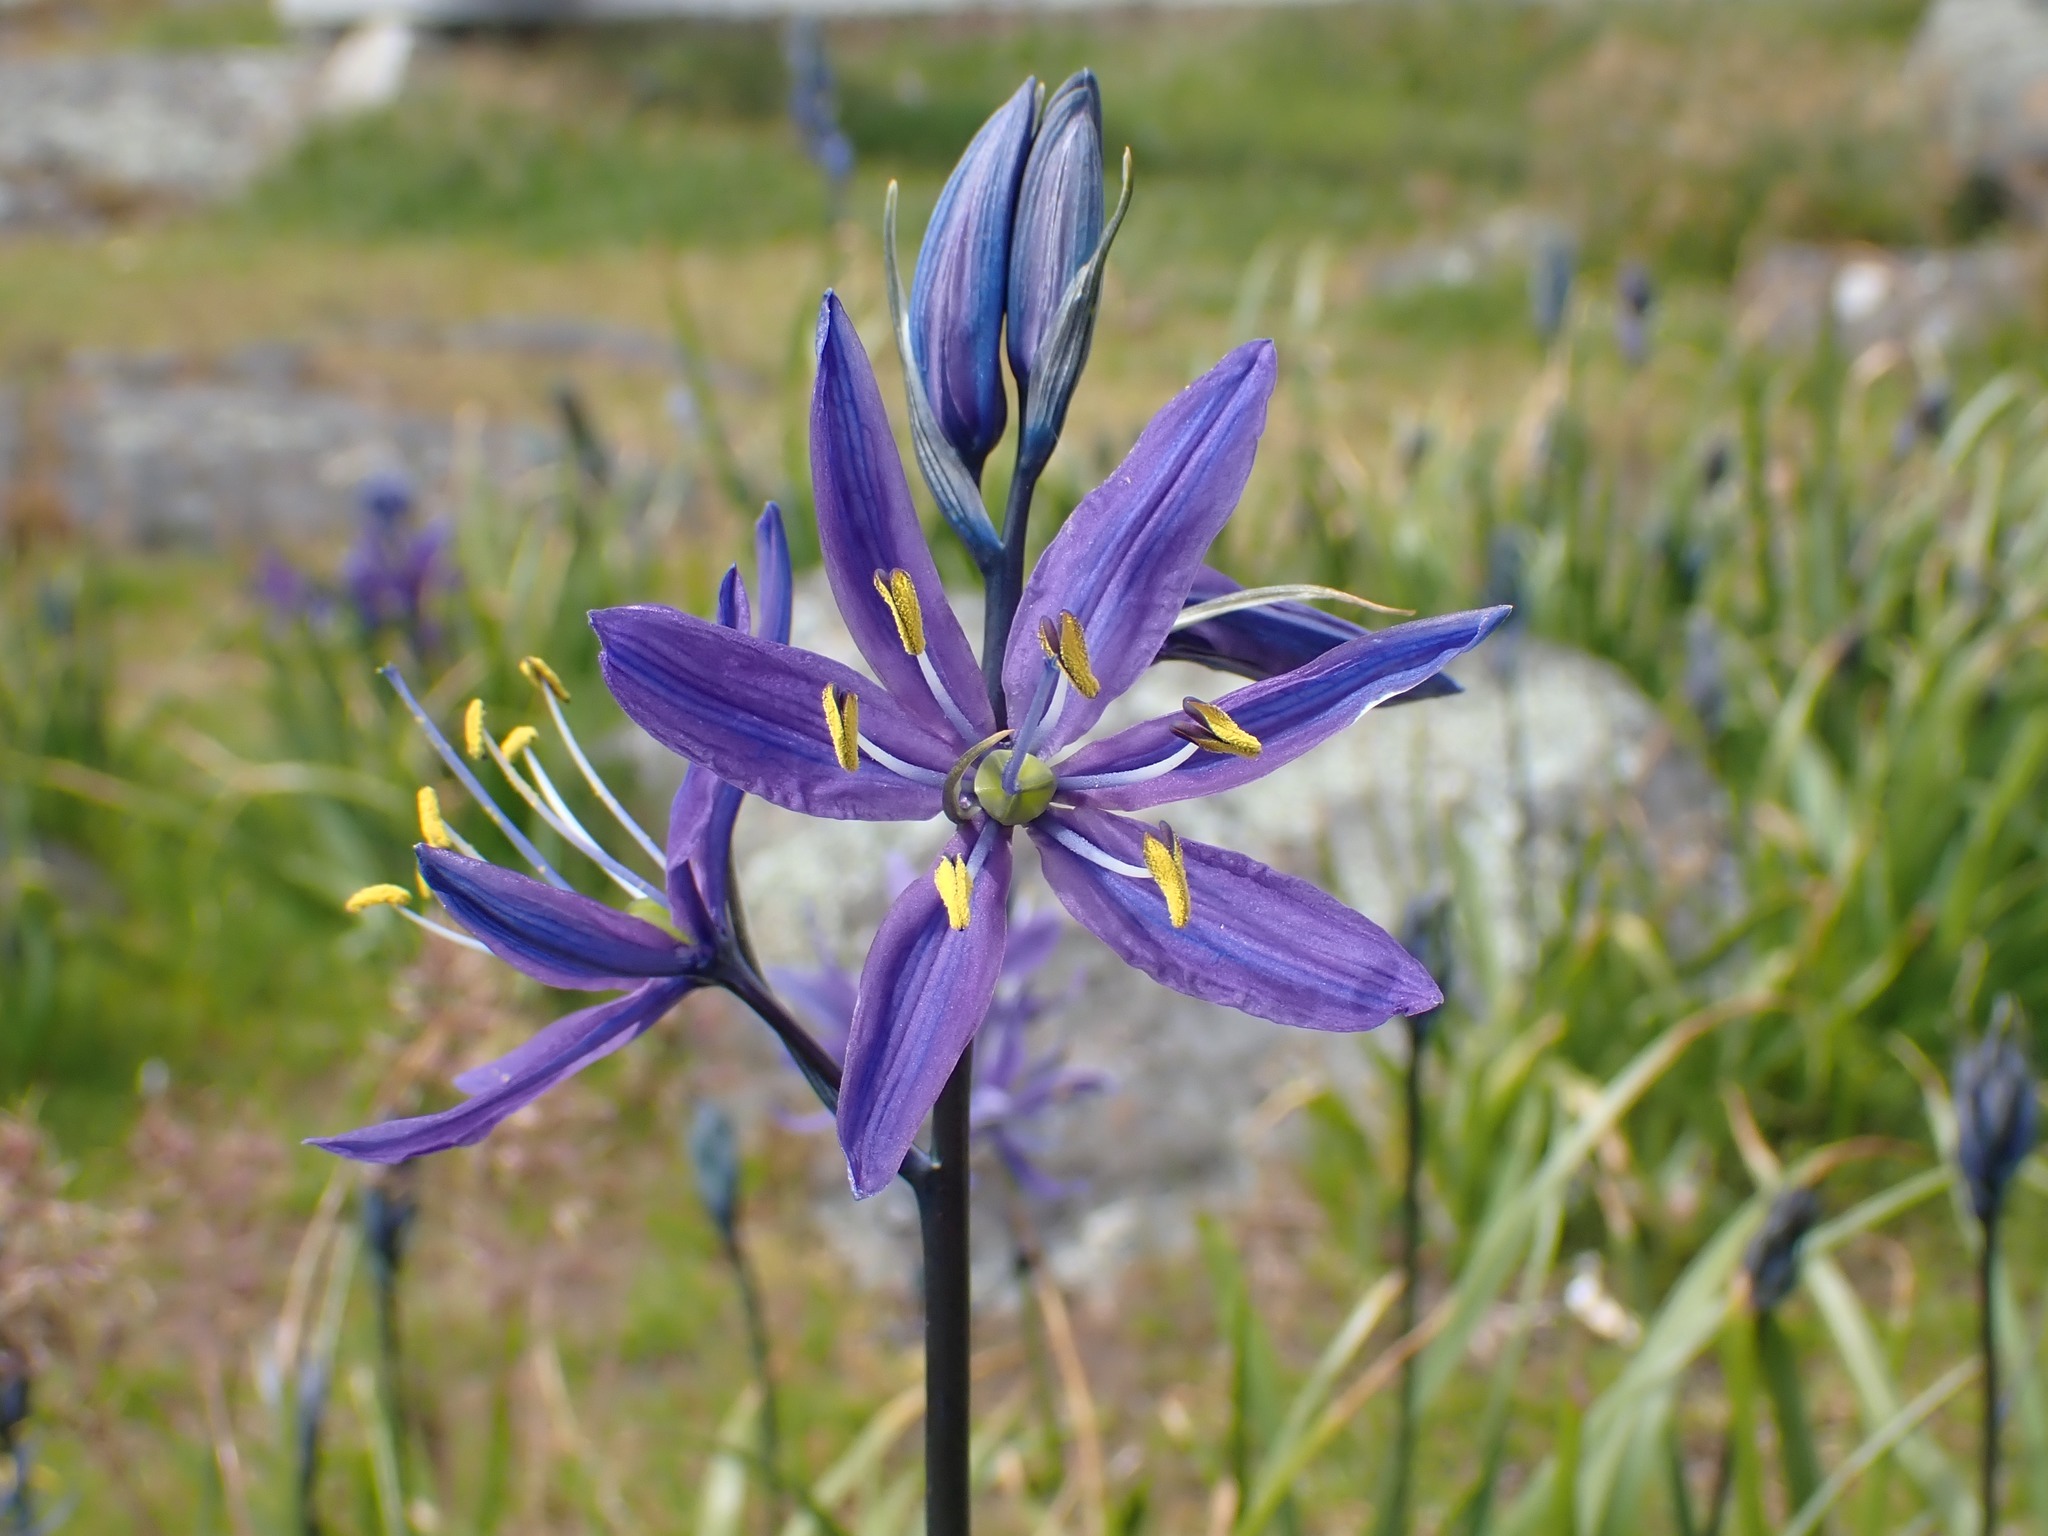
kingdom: Plantae
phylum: Tracheophyta
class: Liliopsida
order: Asparagales
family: Asparagaceae
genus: Camassia
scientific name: Camassia quamash
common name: Common camas
